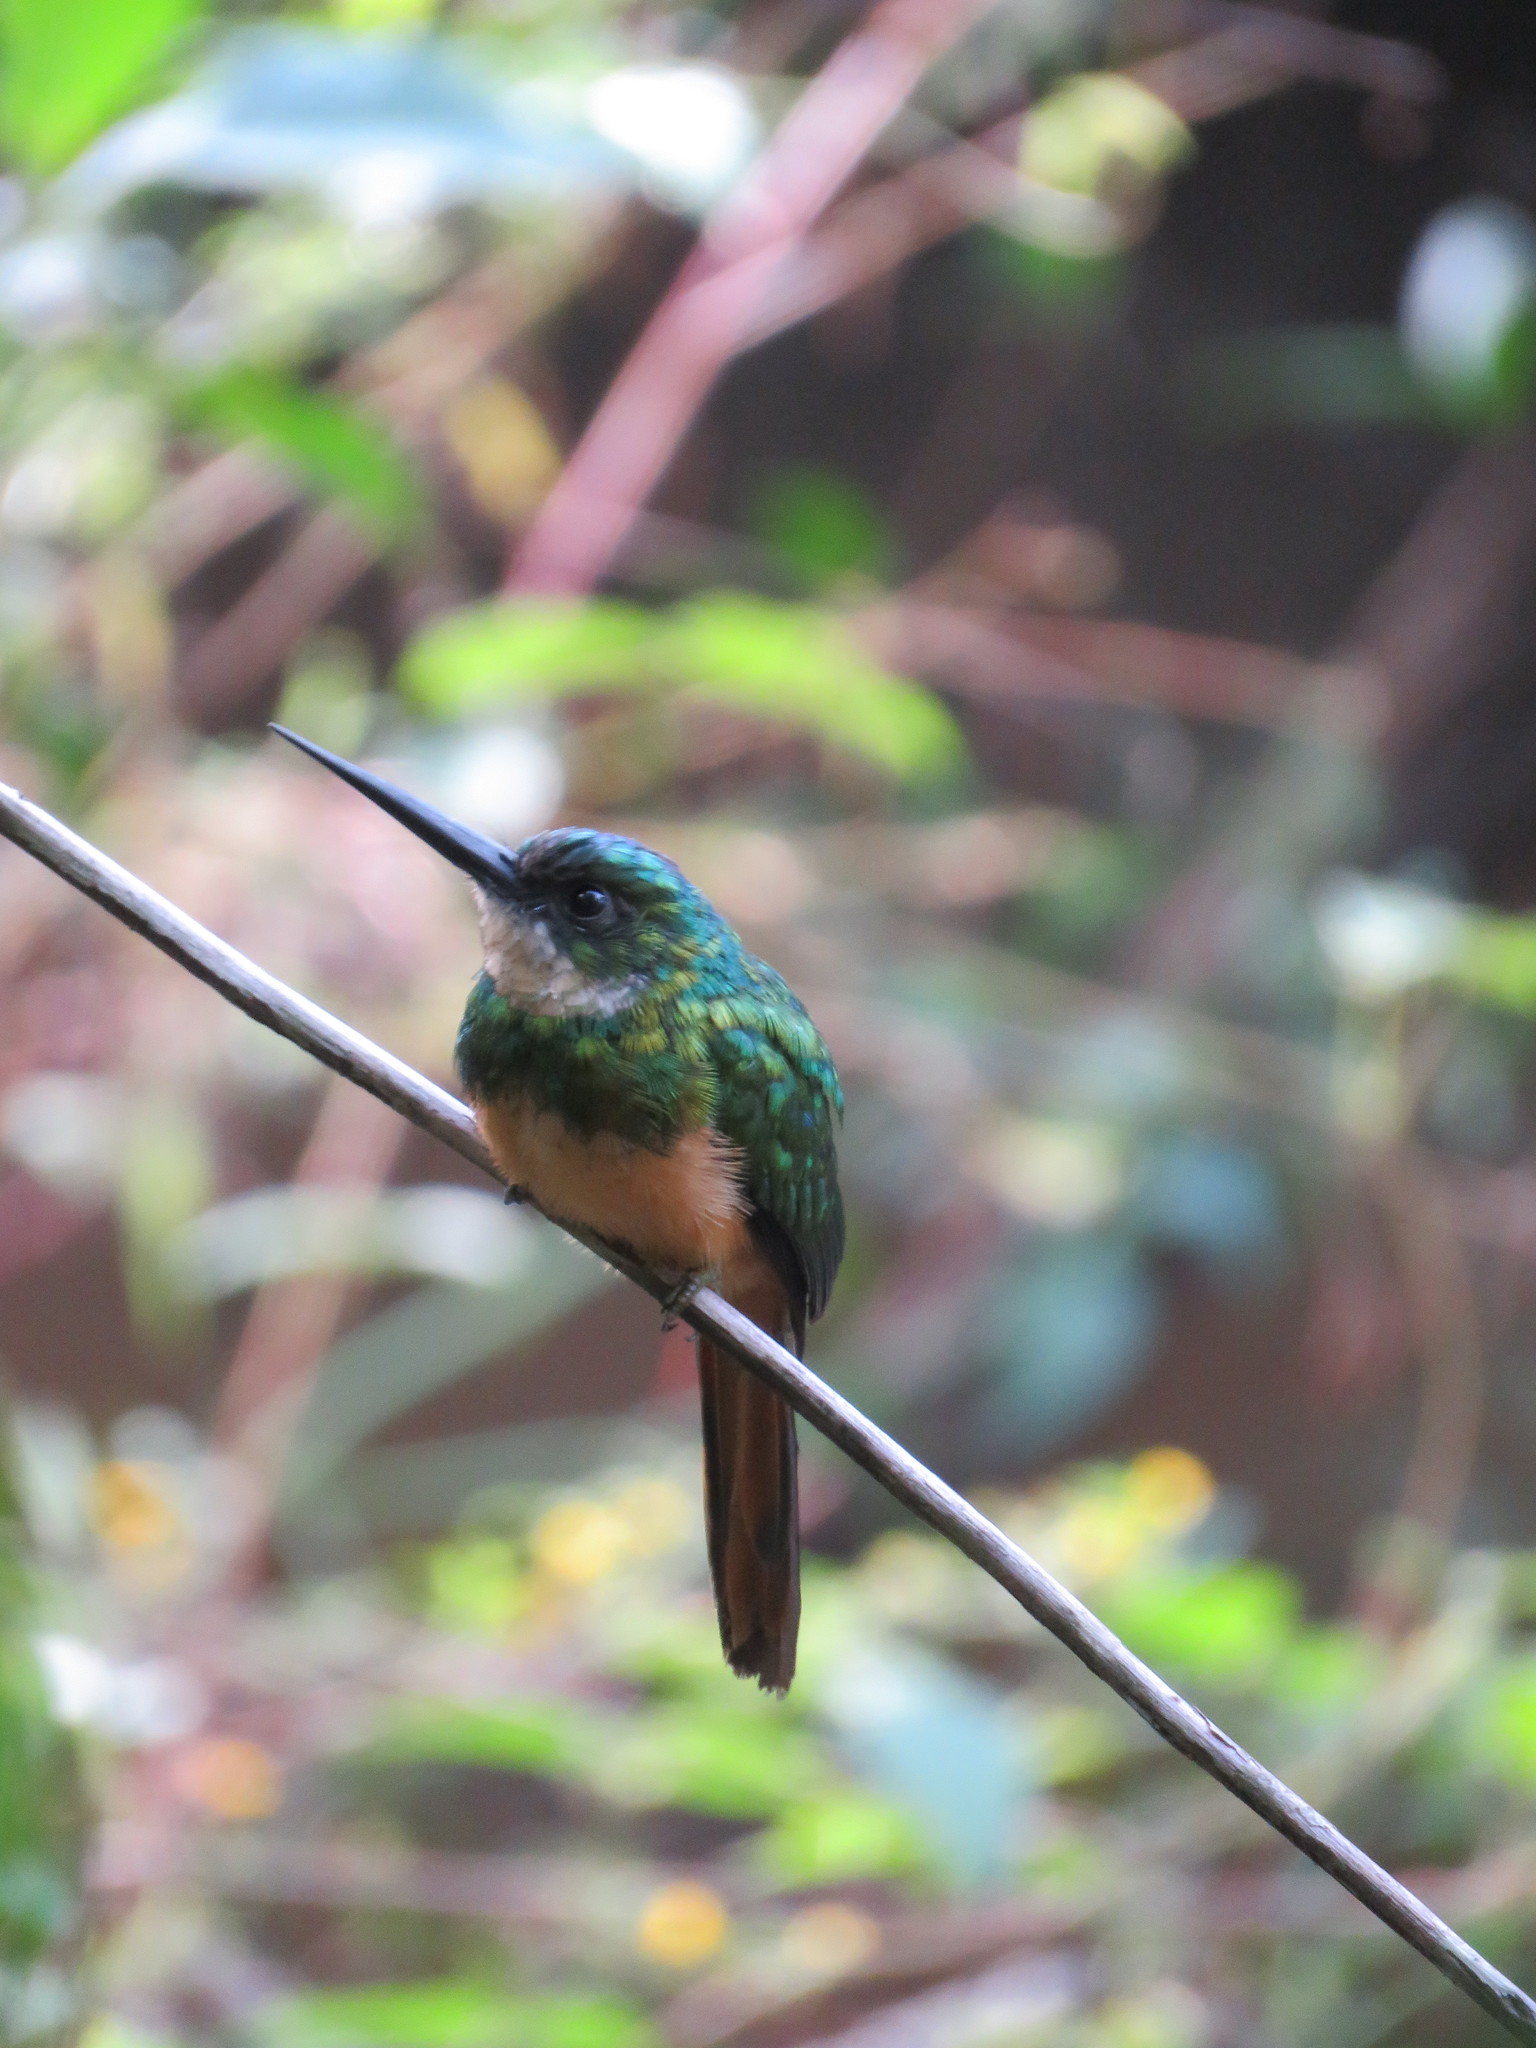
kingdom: Animalia
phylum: Chordata
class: Aves
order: Piciformes
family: Galbulidae
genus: Galbula
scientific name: Galbula ruficauda
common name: Rufous-tailed jacamar
